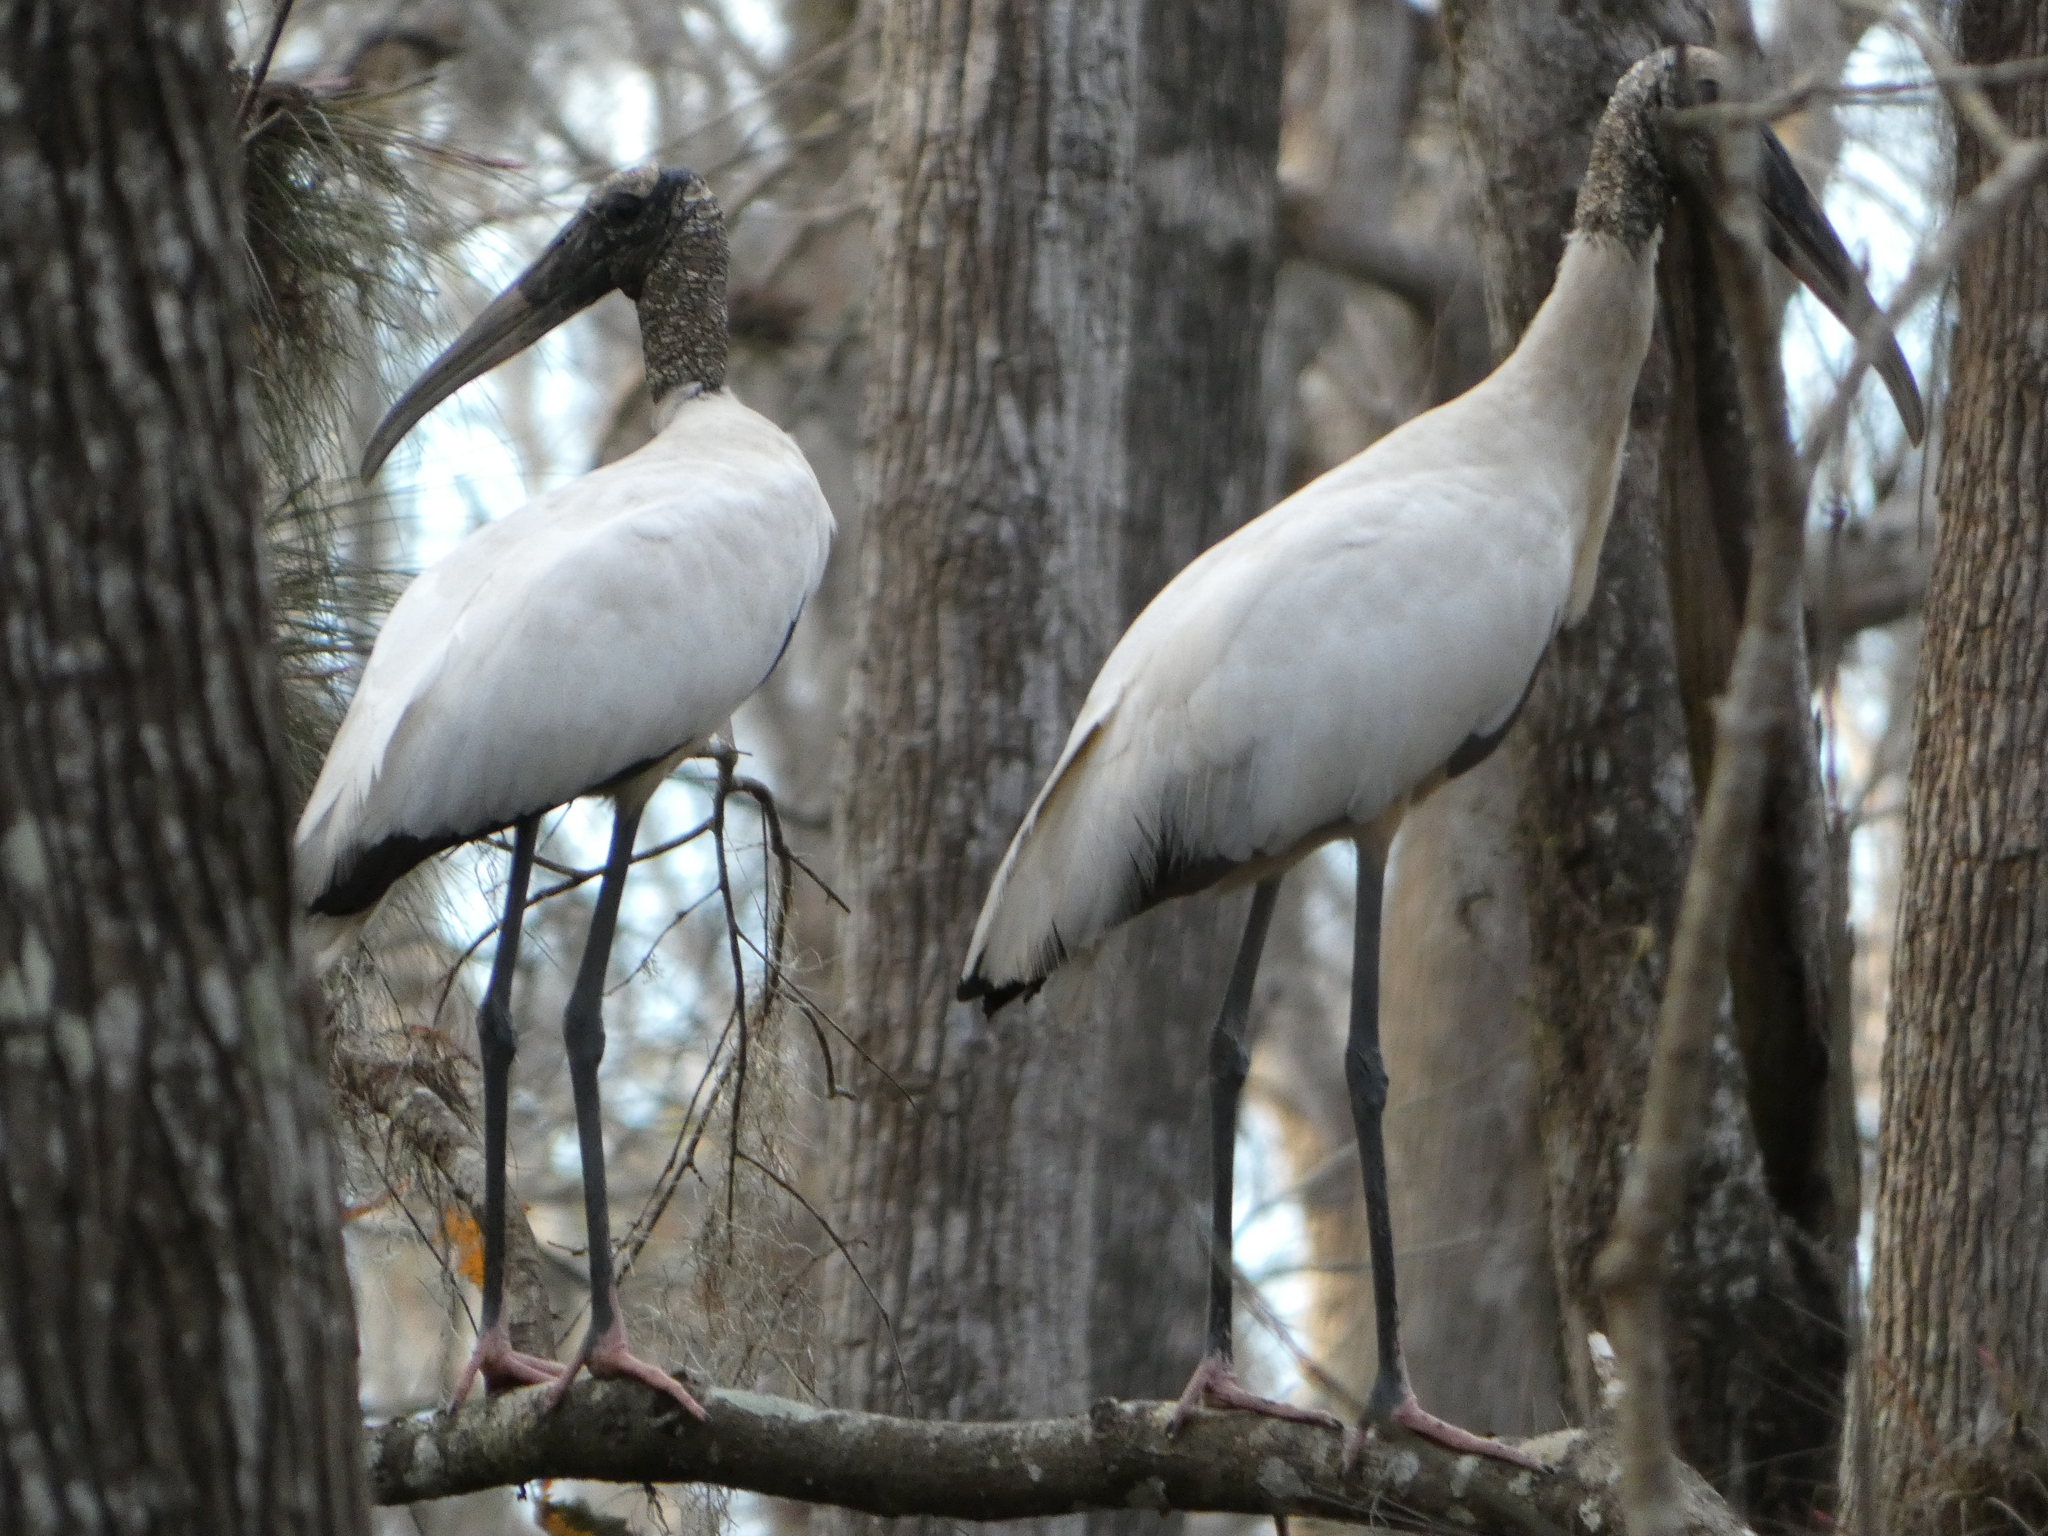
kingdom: Animalia
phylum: Chordata
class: Aves
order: Ciconiiformes
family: Ciconiidae
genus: Mycteria
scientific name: Mycteria americana
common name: Wood stork
